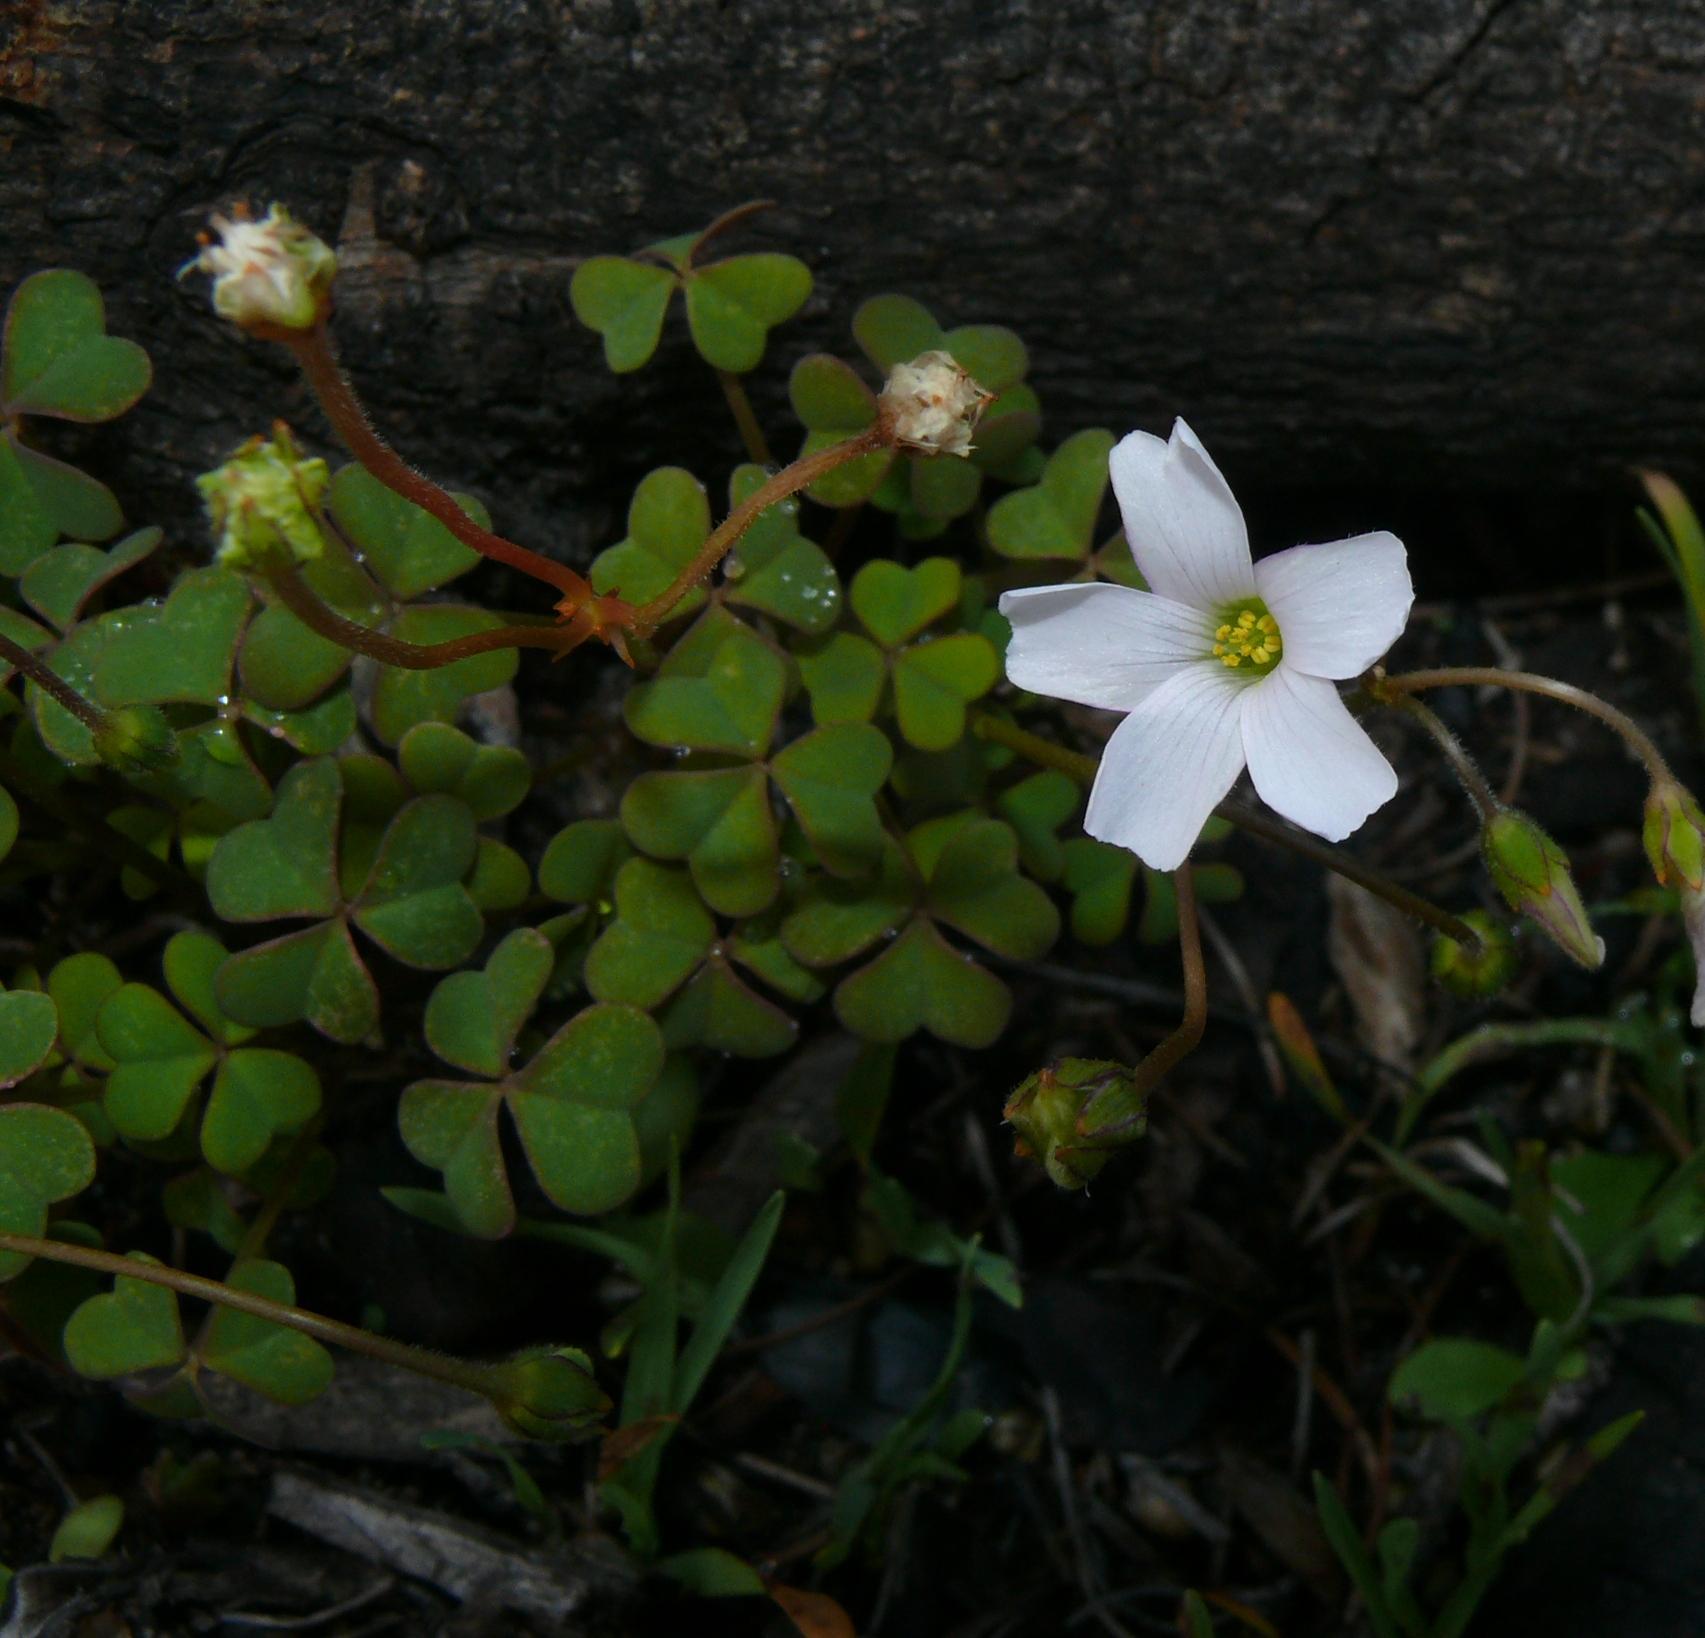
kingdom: Plantae
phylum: Tracheophyta
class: Magnoliopsida
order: Oxalidales
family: Oxalidaceae
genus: Oxalis
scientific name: Oxalis
